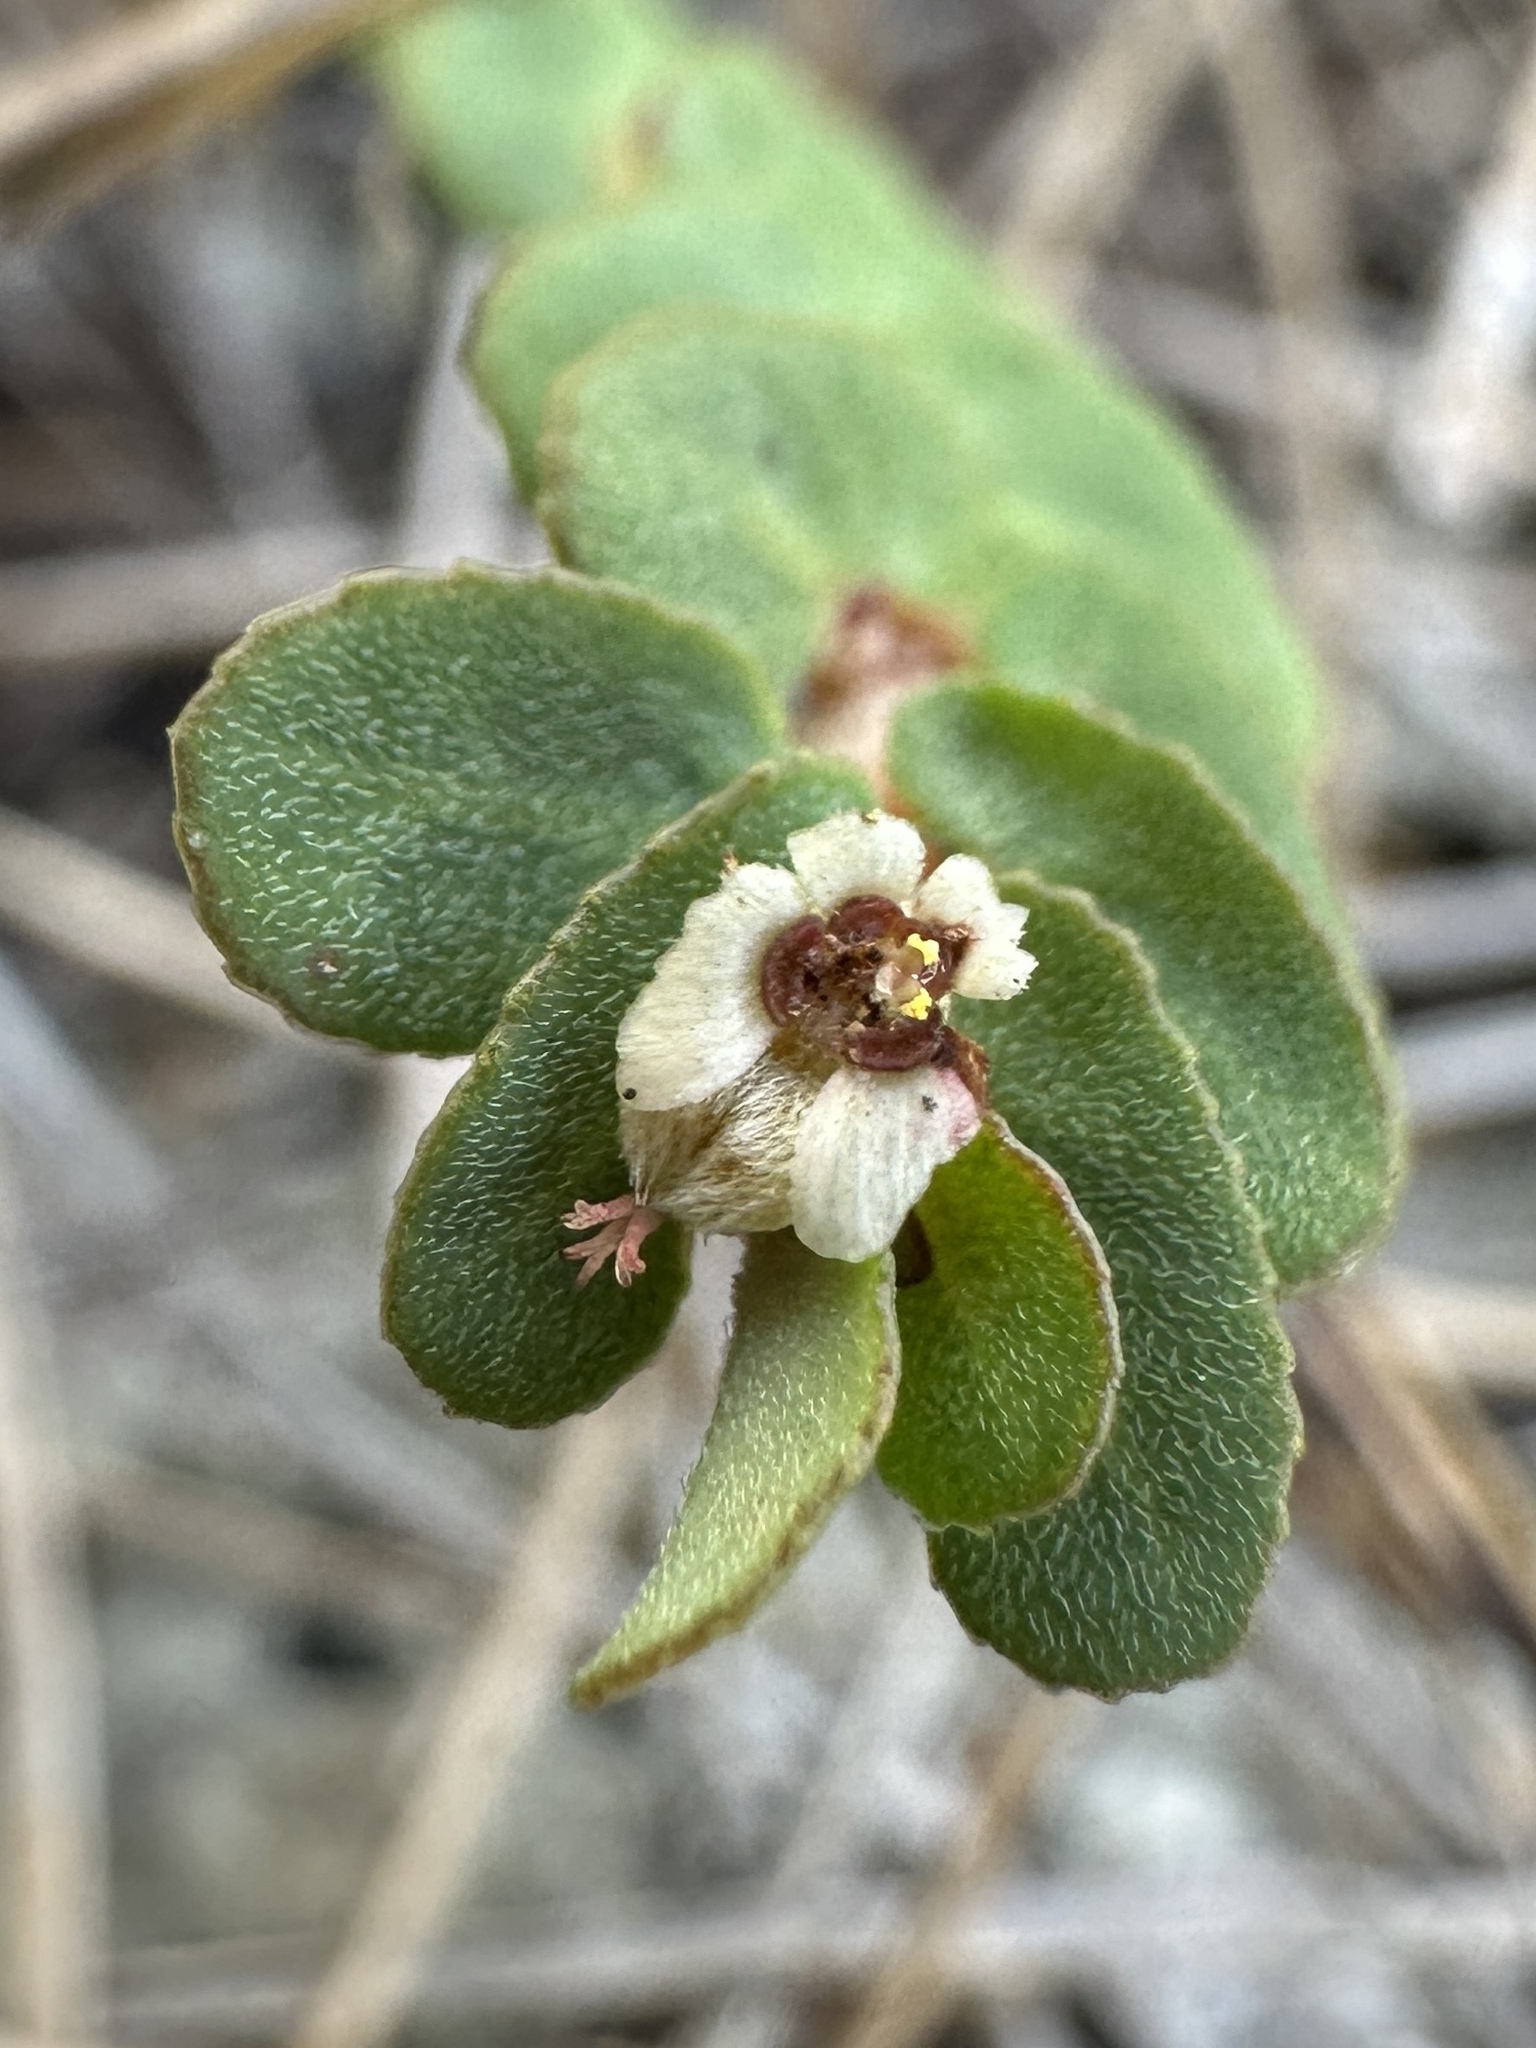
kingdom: Plantae
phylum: Tracheophyta
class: Magnoliopsida
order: Malpighiales
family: Euphorbiaceae
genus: Euphorbia
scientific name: Euphorbia pergamena
